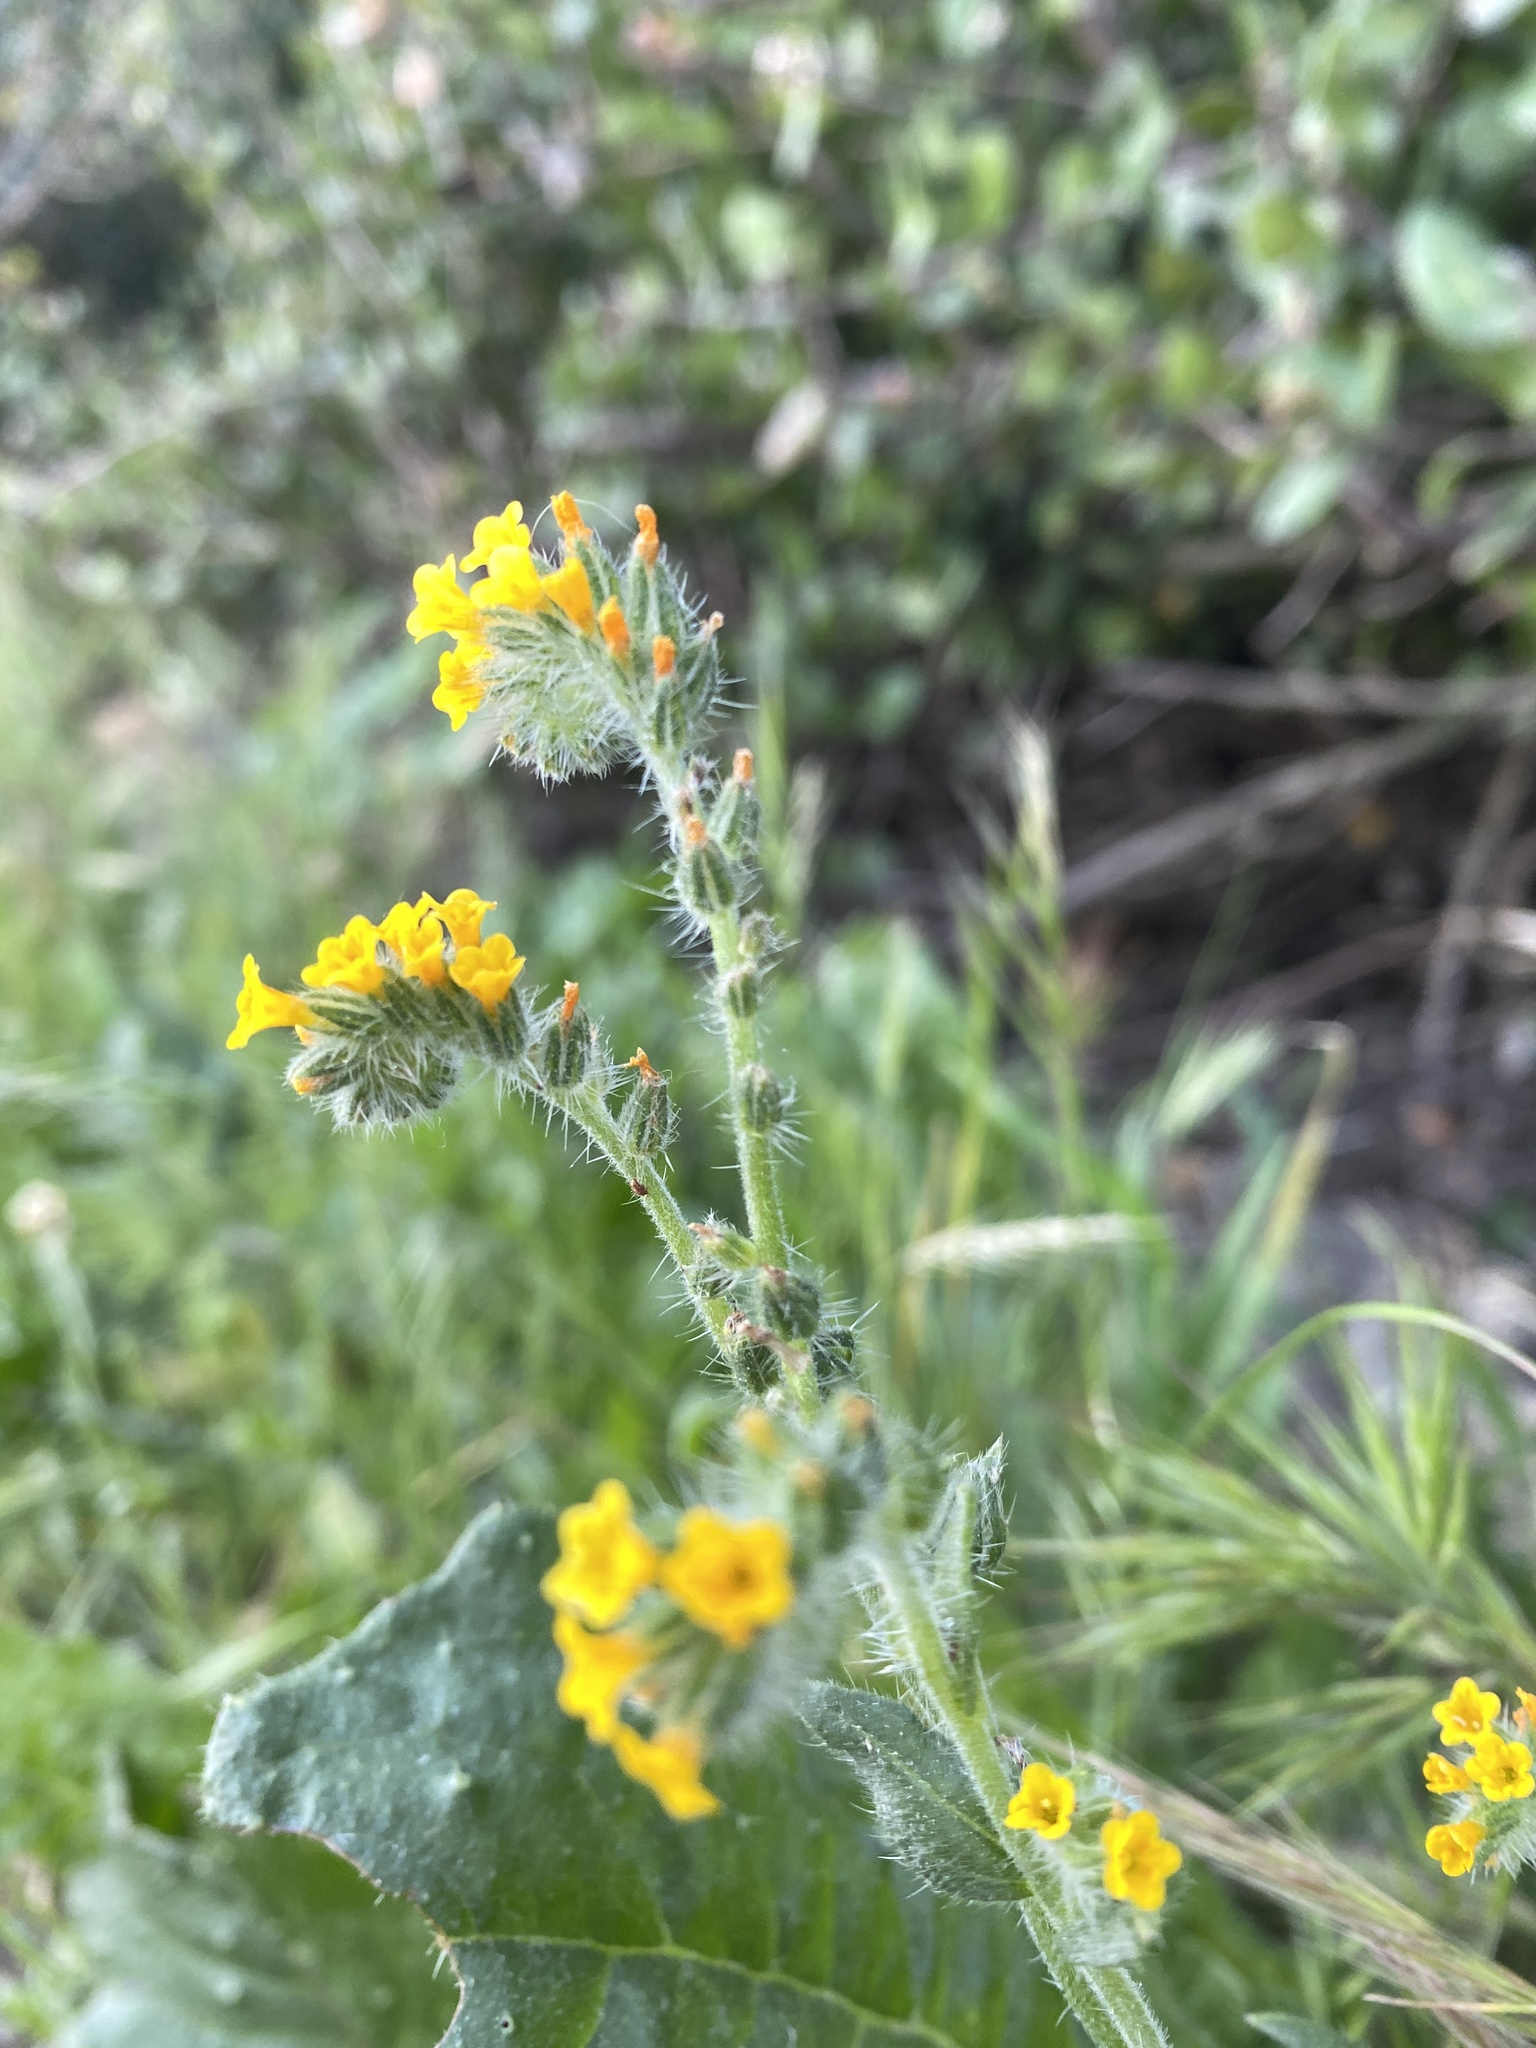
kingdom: Plantae
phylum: Tracheophyta
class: Magnoliopsida
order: Boraginales
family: Boraginaceae
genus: Amsinckia
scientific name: Amsinckia menziesii
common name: Menzies' fiddleneck
